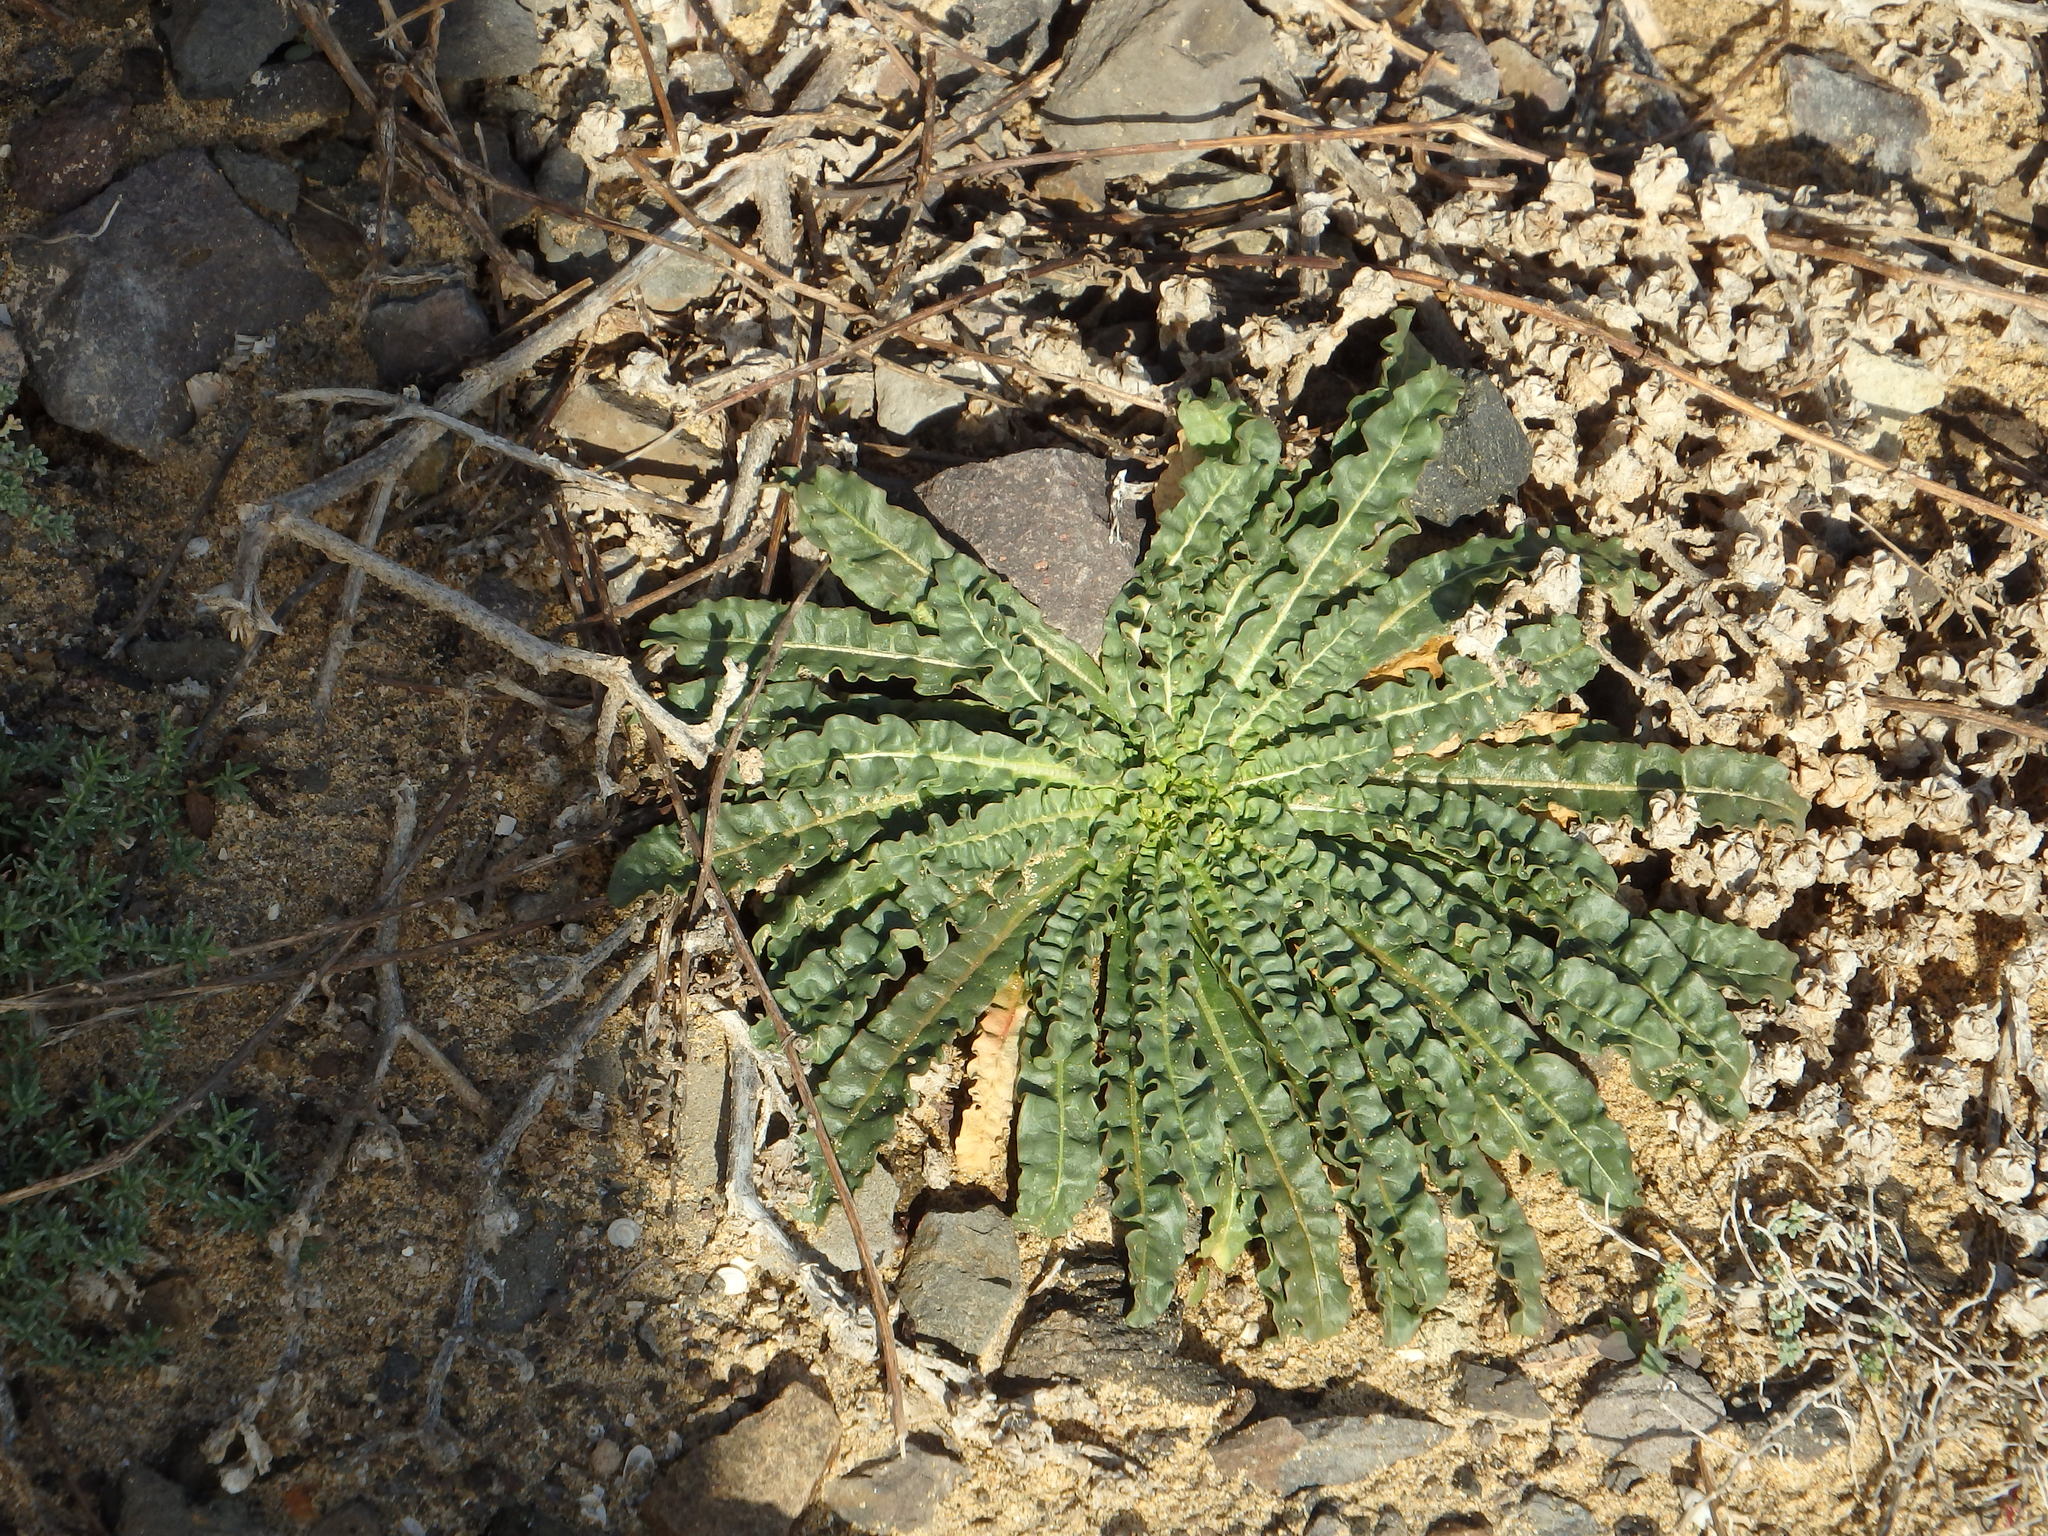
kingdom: Plantae
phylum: Tracheophyta
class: Magnoliopsida
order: Brassicales
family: Resedaceae
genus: Reseda
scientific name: Reseda luteola
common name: Weld
